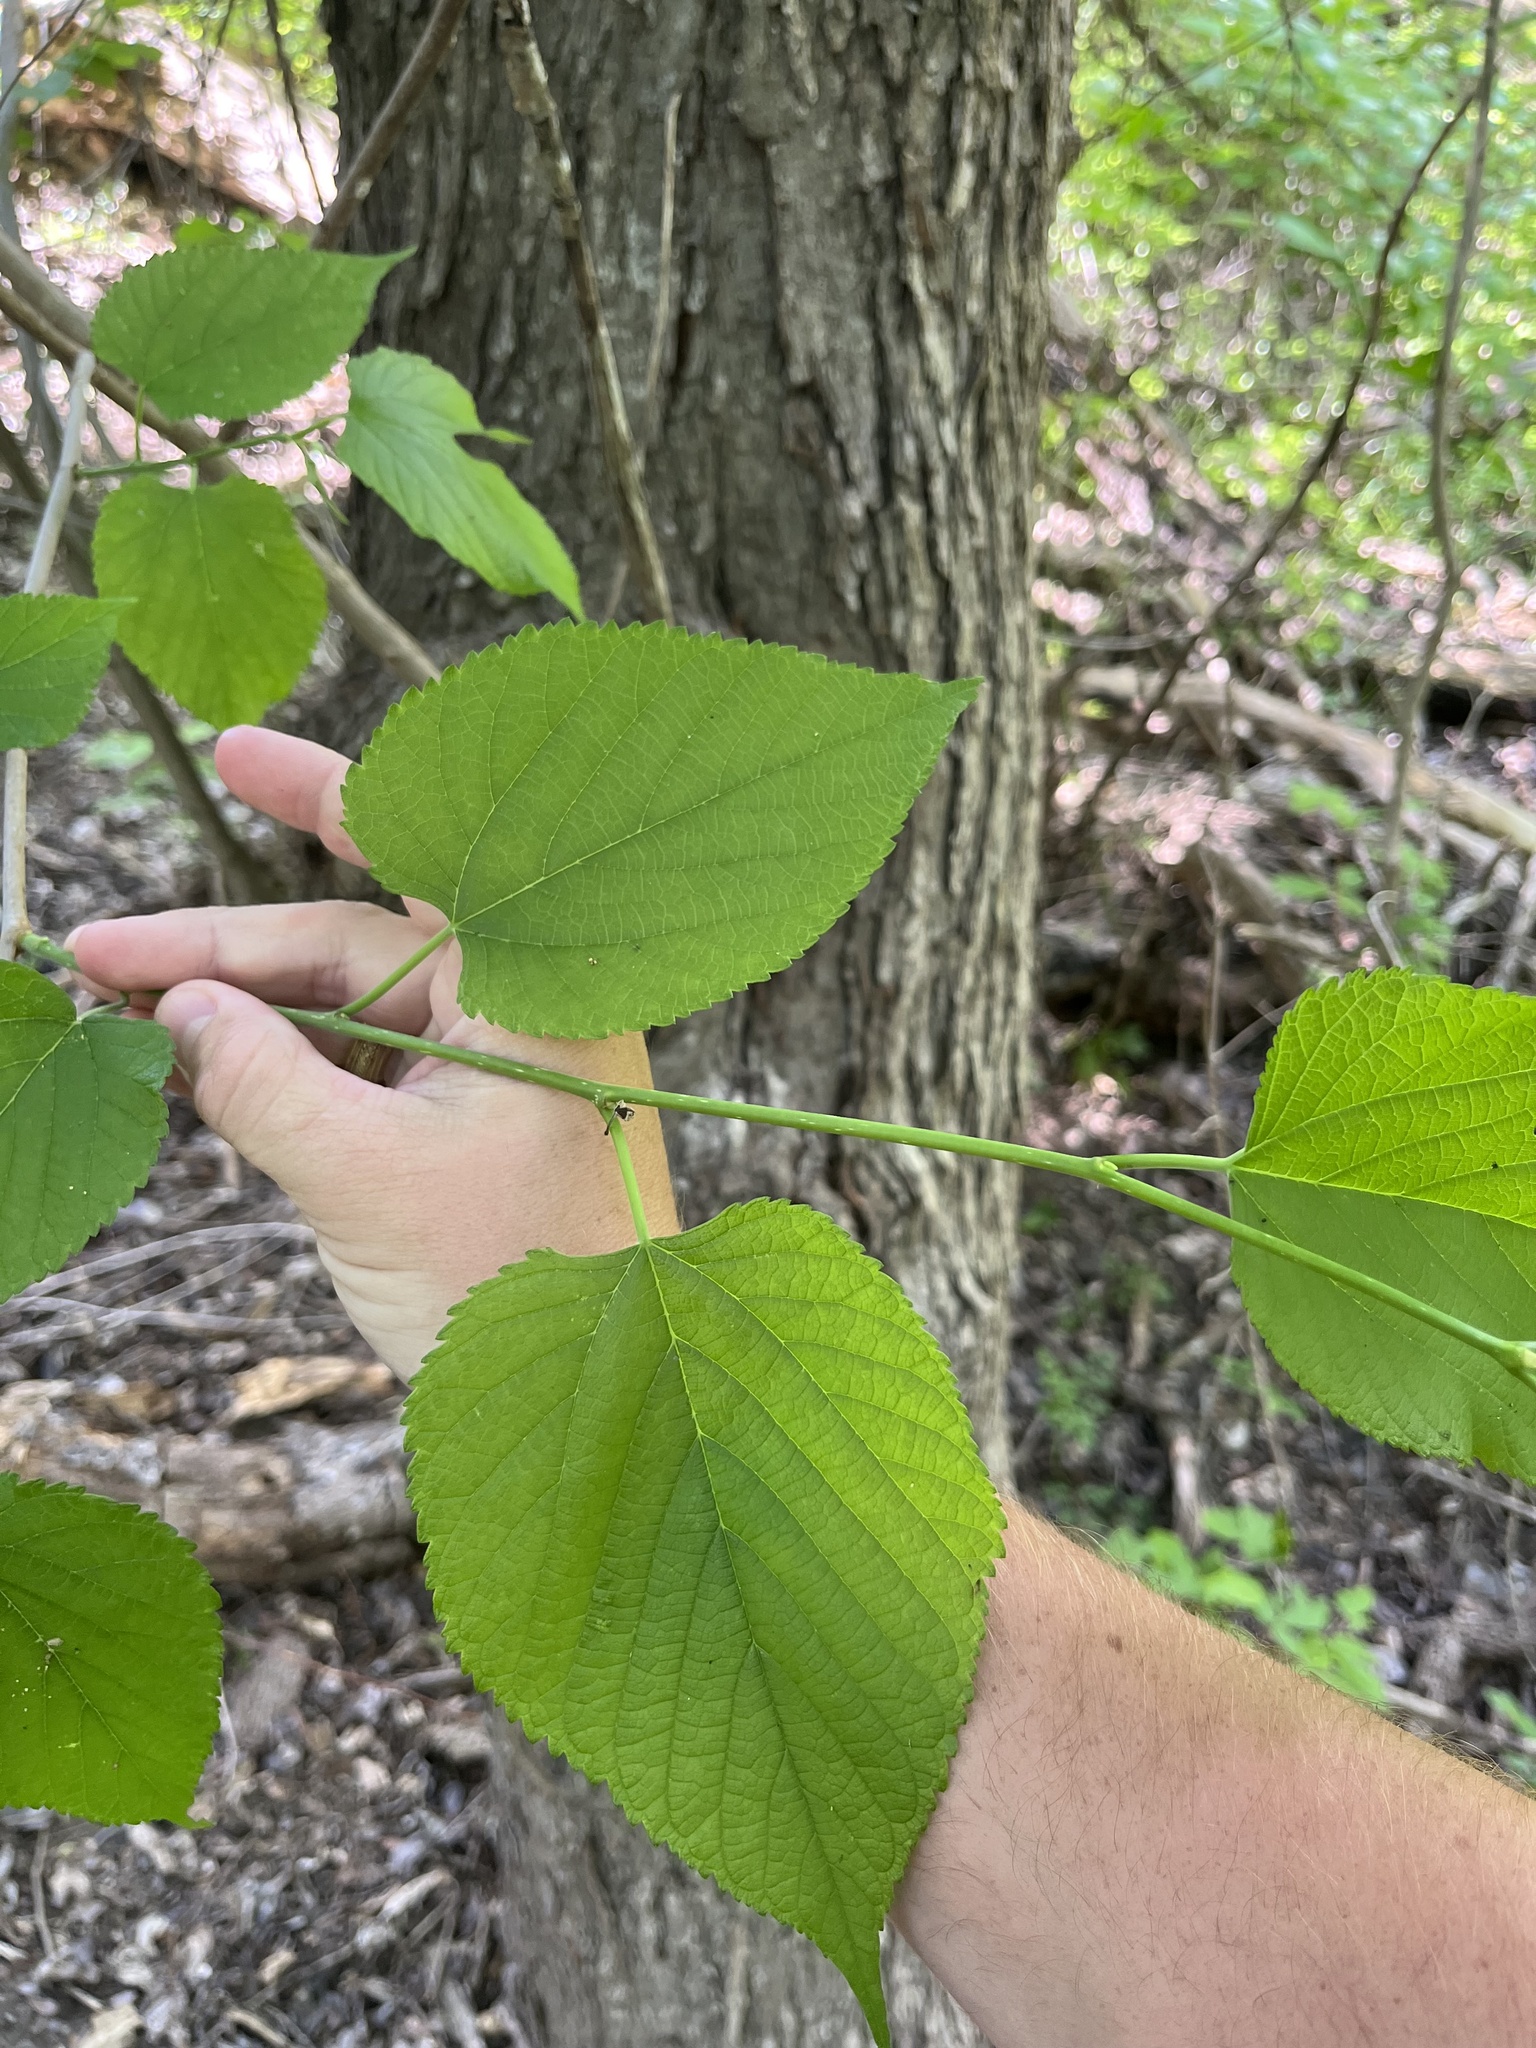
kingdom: Plantae
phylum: Tracheophyta
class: Magnoliopsida
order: Rosales
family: Moraceae
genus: Morus
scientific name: Morus rubra
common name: Red mulberry
